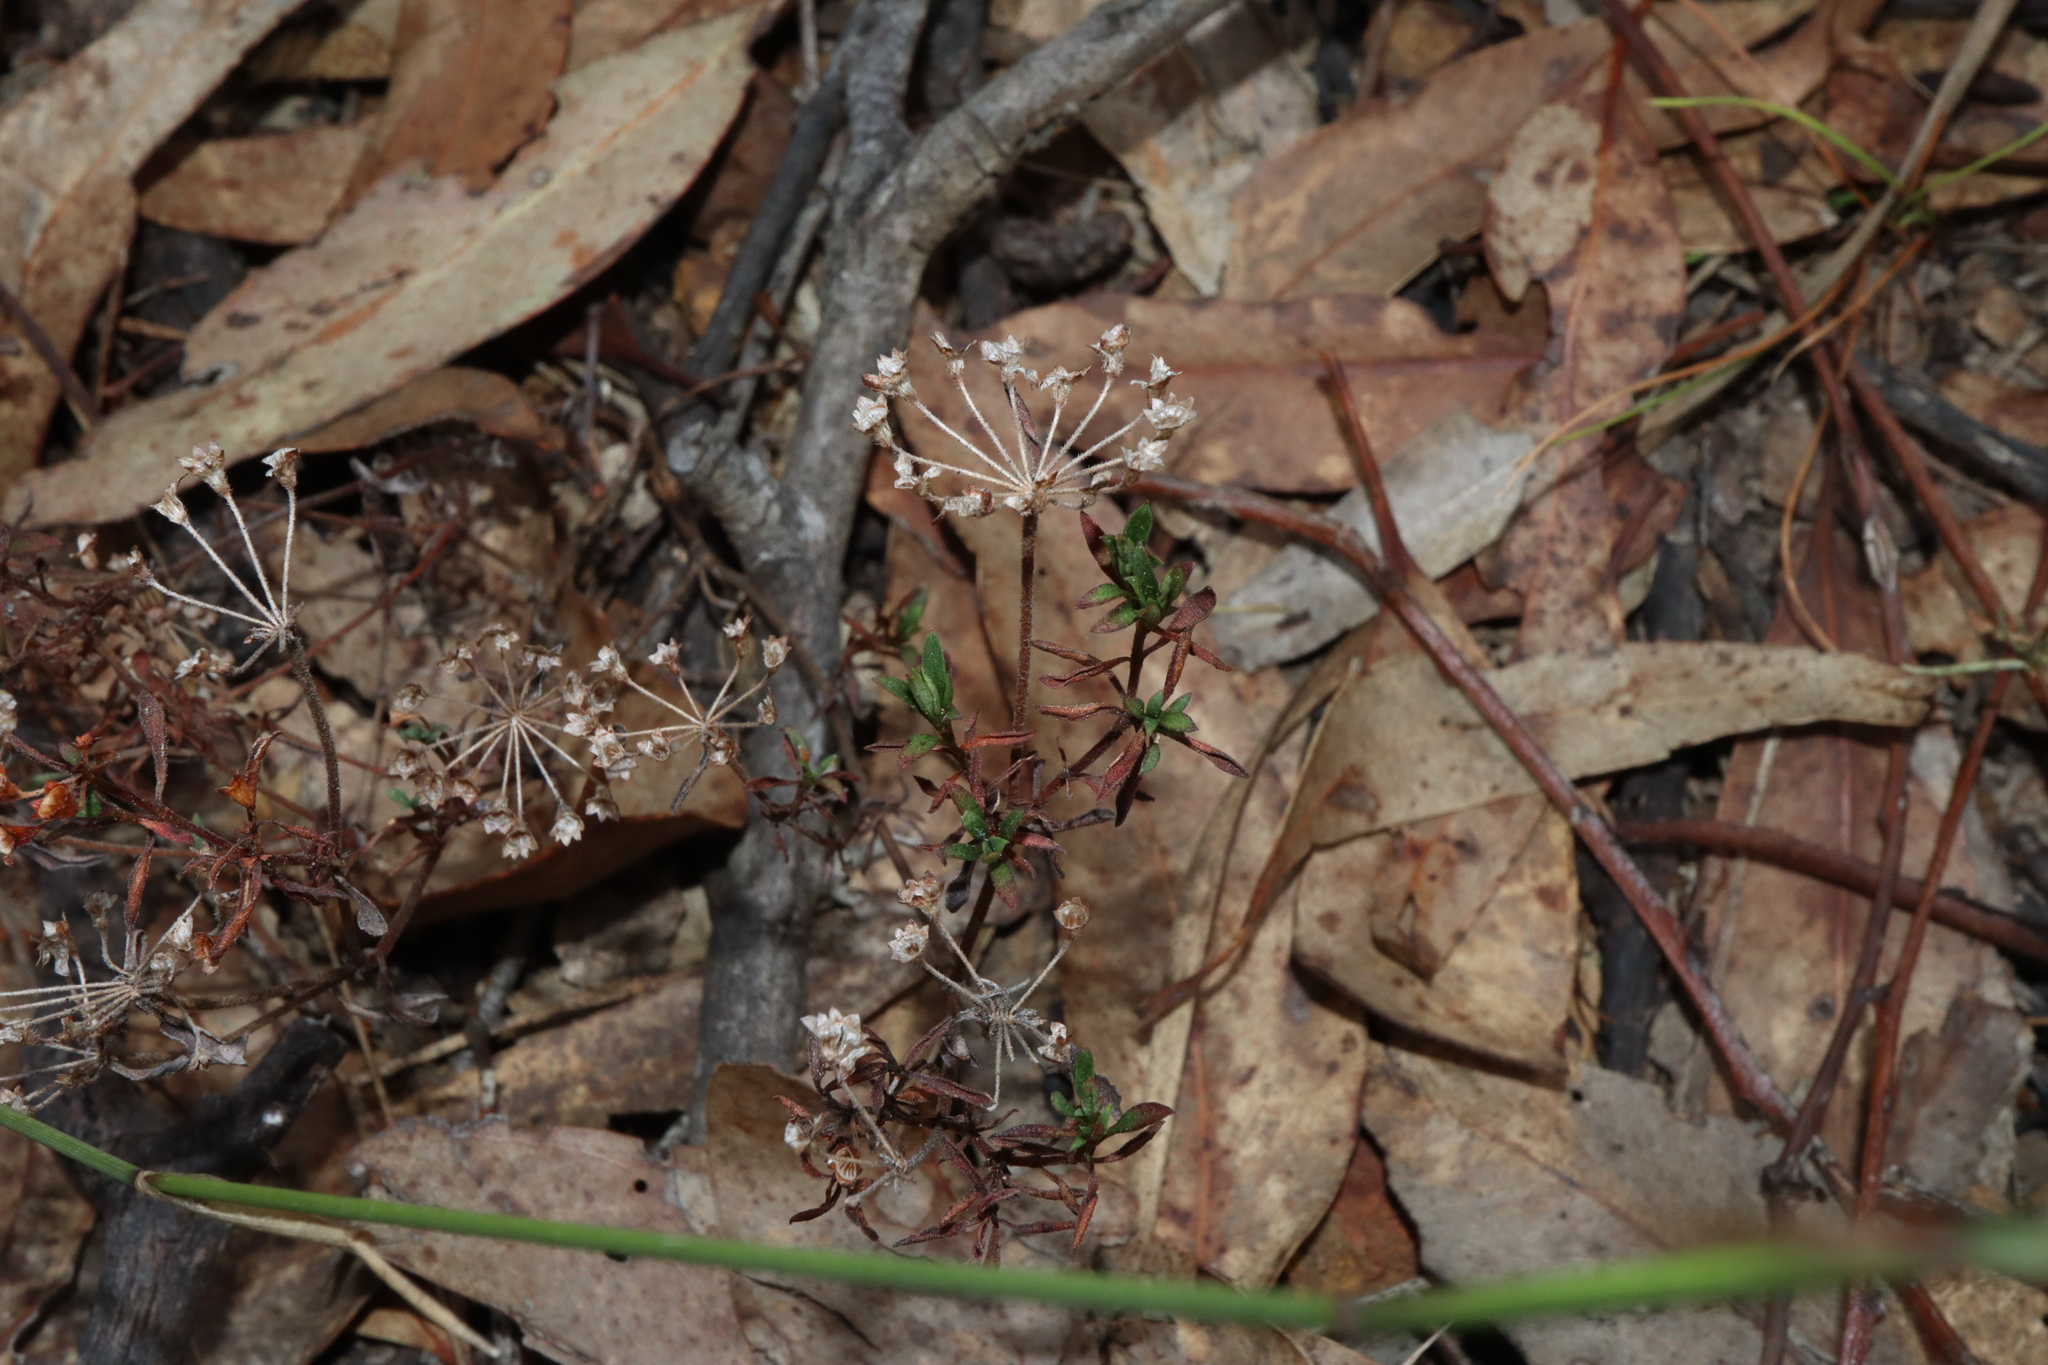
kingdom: Plantae
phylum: Tracheophyta
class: Magnoliopsida
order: Gentianales
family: Rubiaceae
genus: Pomax
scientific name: Pomax umbellata
